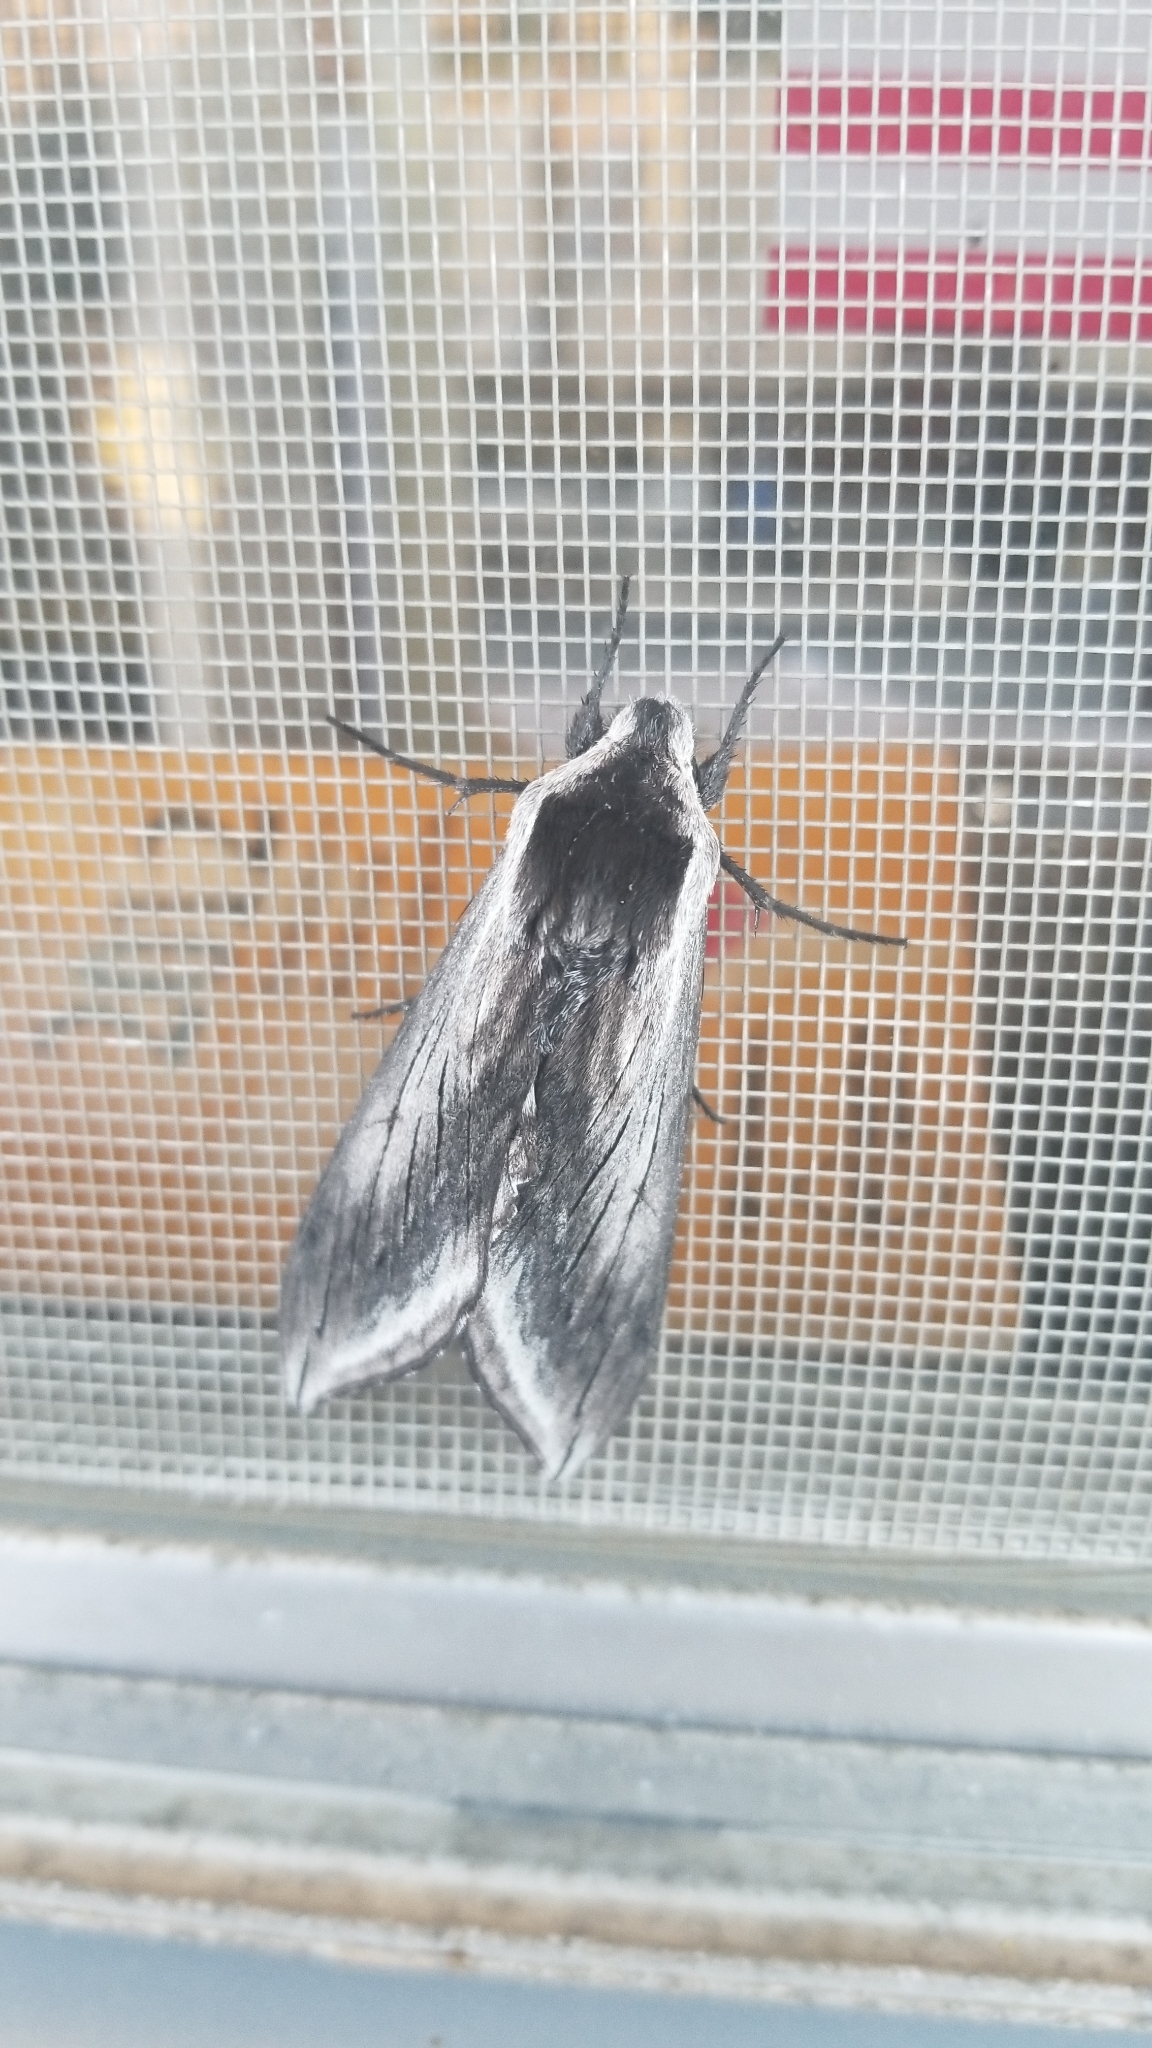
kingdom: Animalia
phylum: Arthropoda
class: Insecta
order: Lepidoptera
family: Sphingidae
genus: Sphinx
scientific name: Sphinx perelegans
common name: Elegant sphinx
